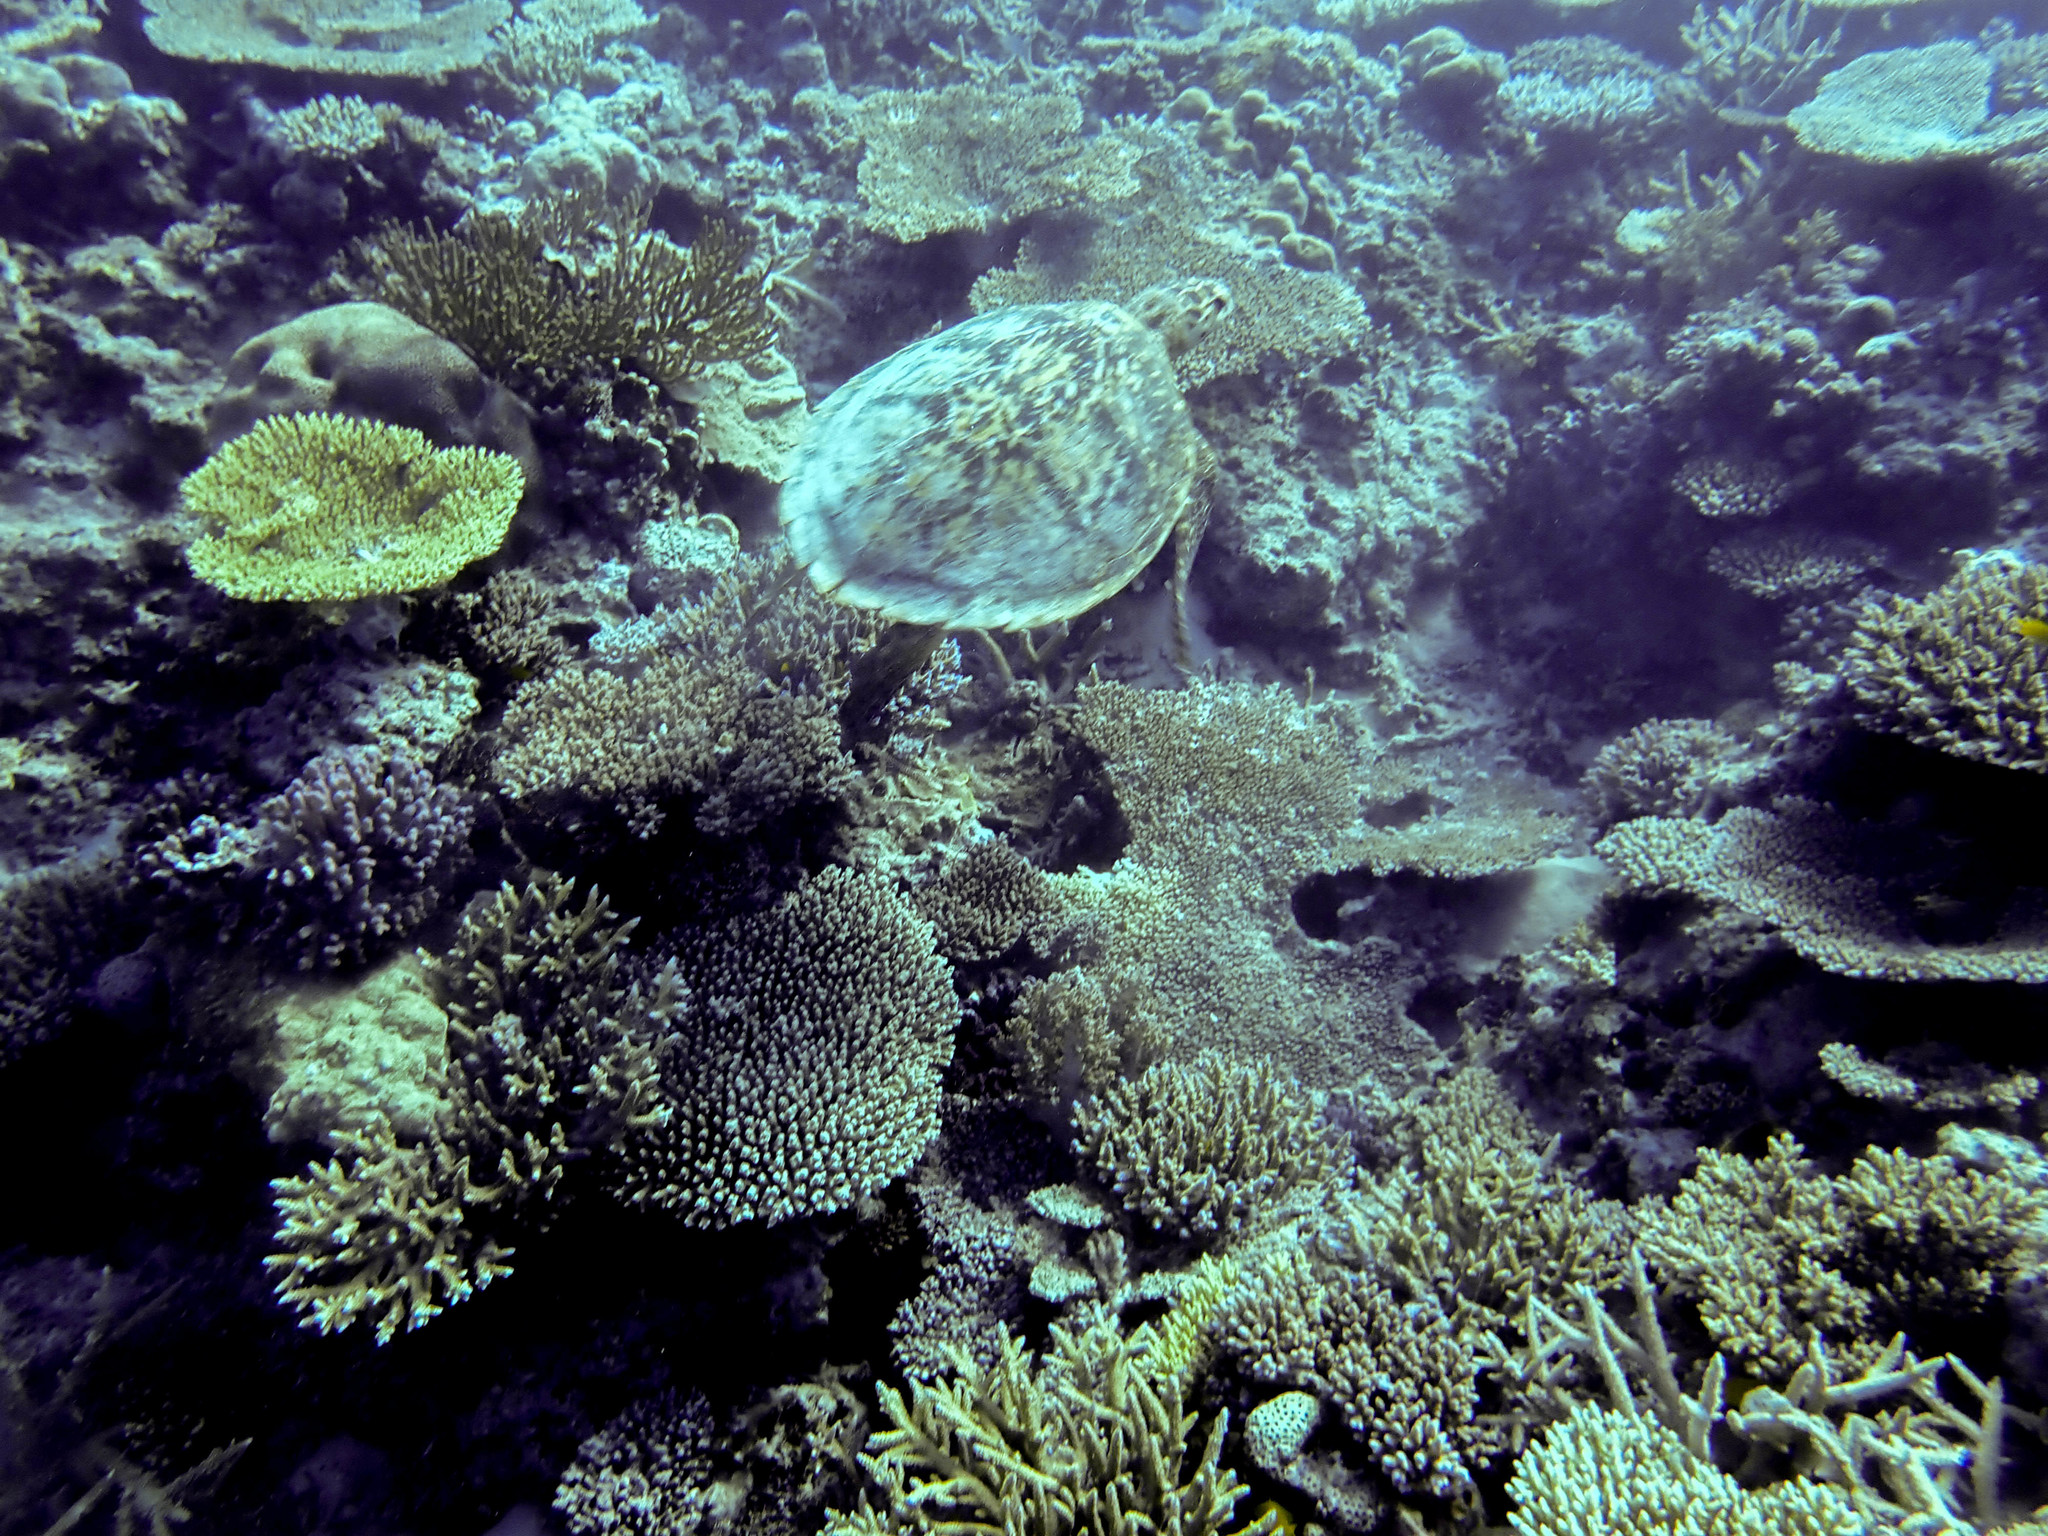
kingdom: Animalia
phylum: Chordata
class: Testudines
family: Cheloniidae
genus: Chelonia
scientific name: Chelonia mydas
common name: Green turtle
